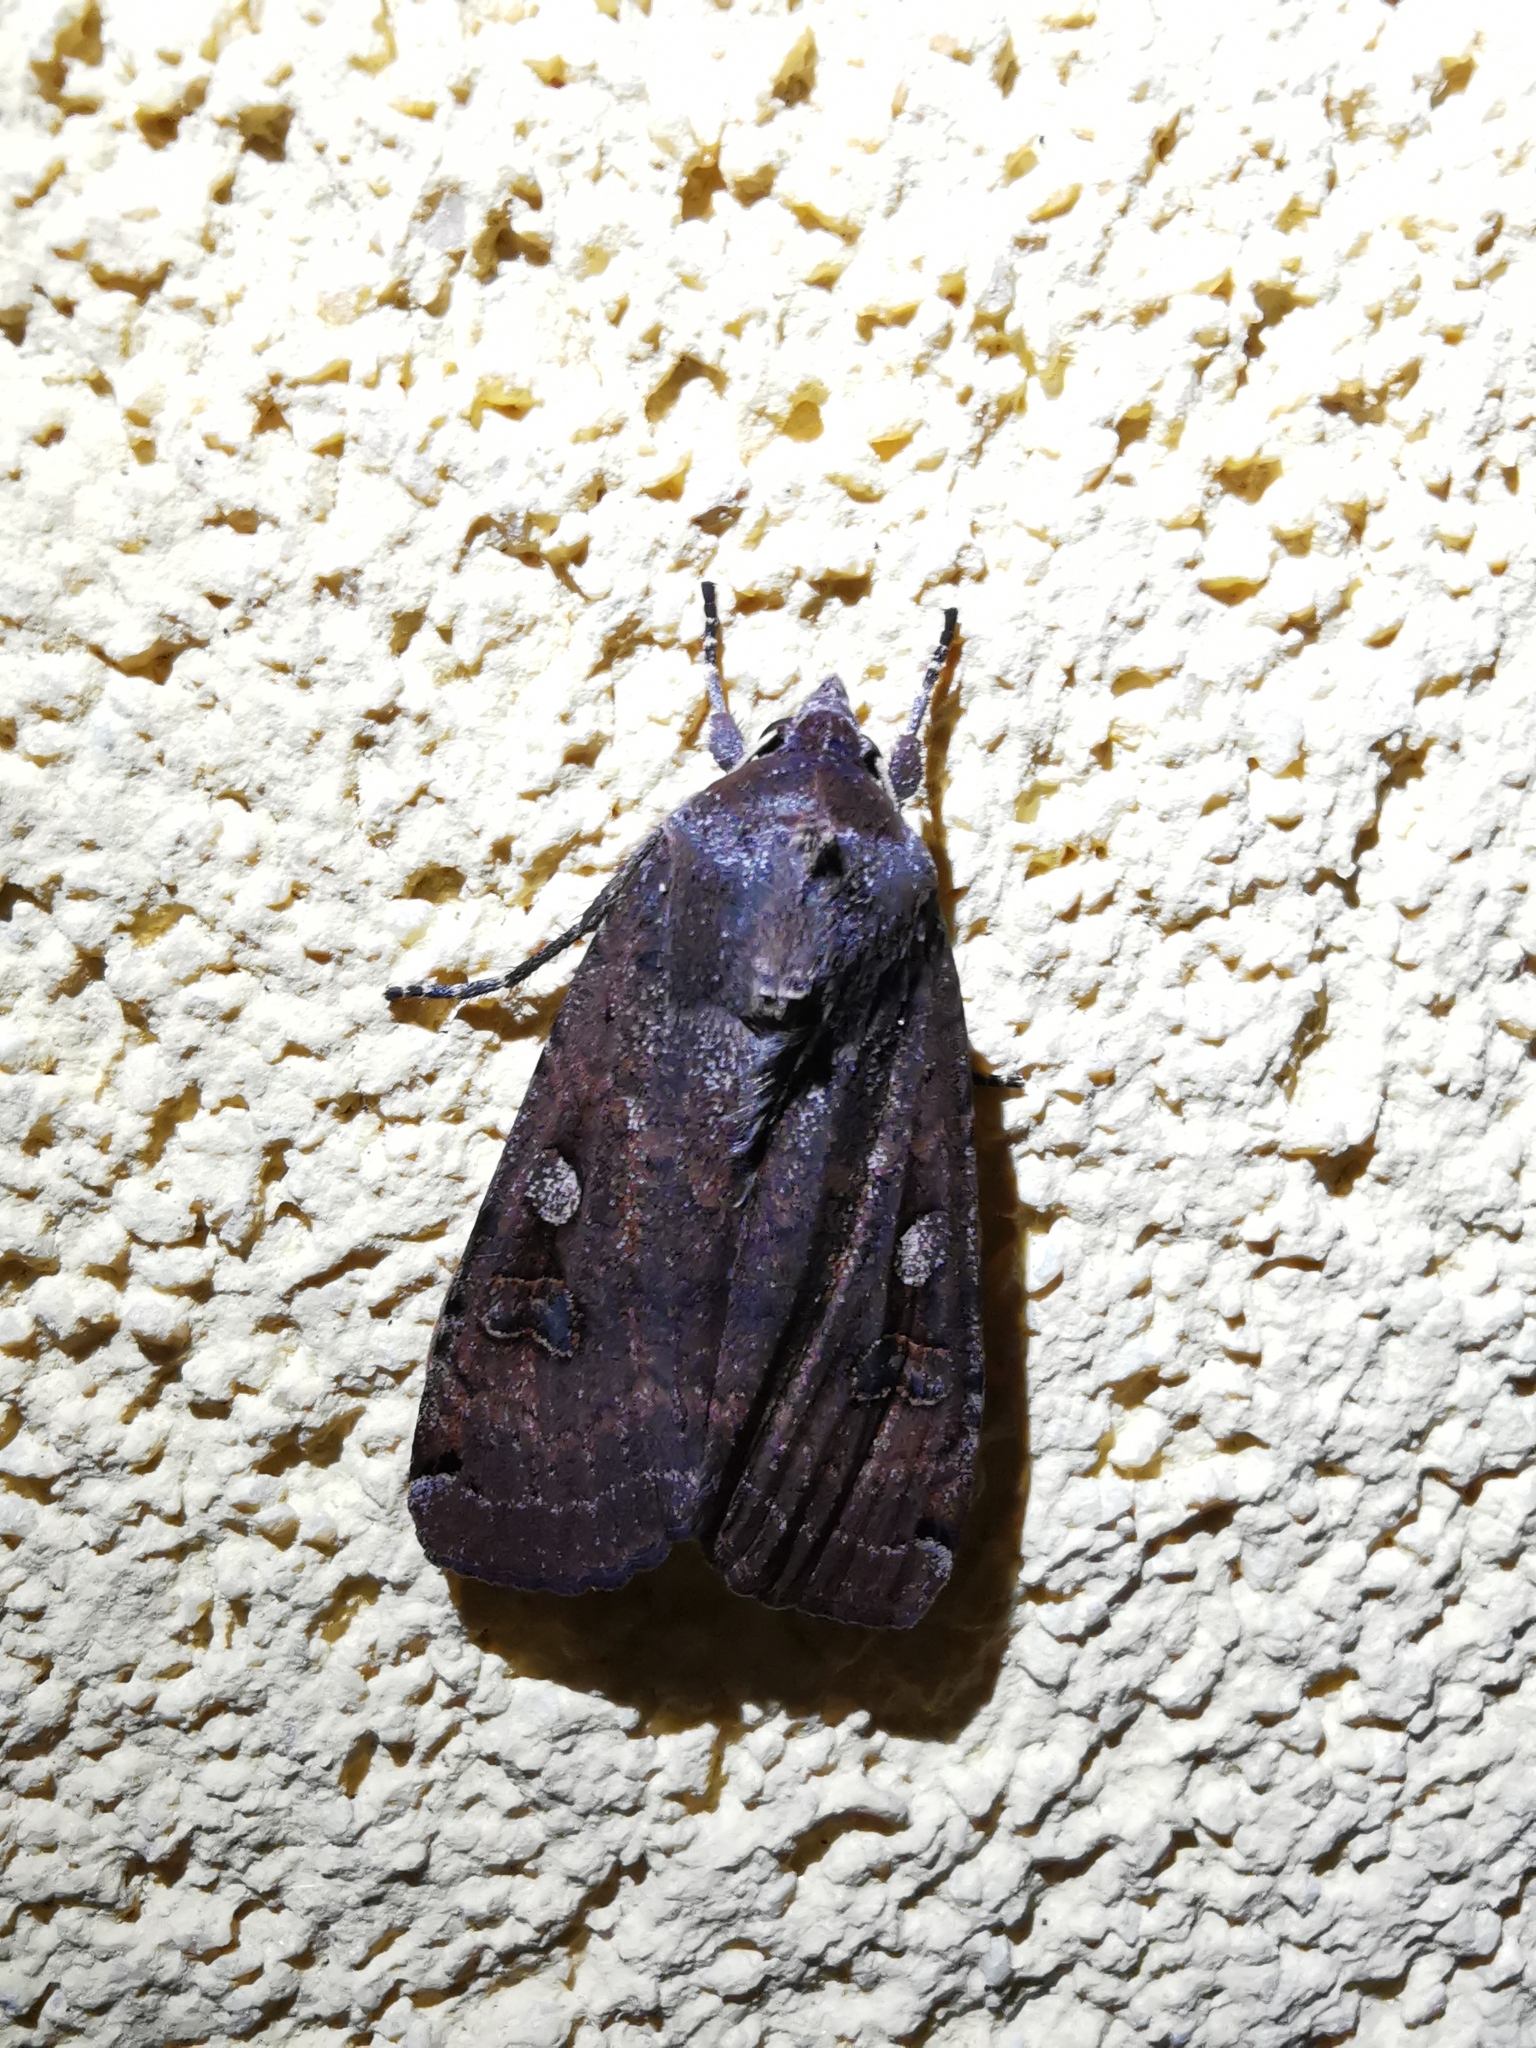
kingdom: Animalia
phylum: Arthropoda
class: Insecta
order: Lepidoptera
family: Noctuidae
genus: Noctua
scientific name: Noctua pronuba
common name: Large yellow underwing
